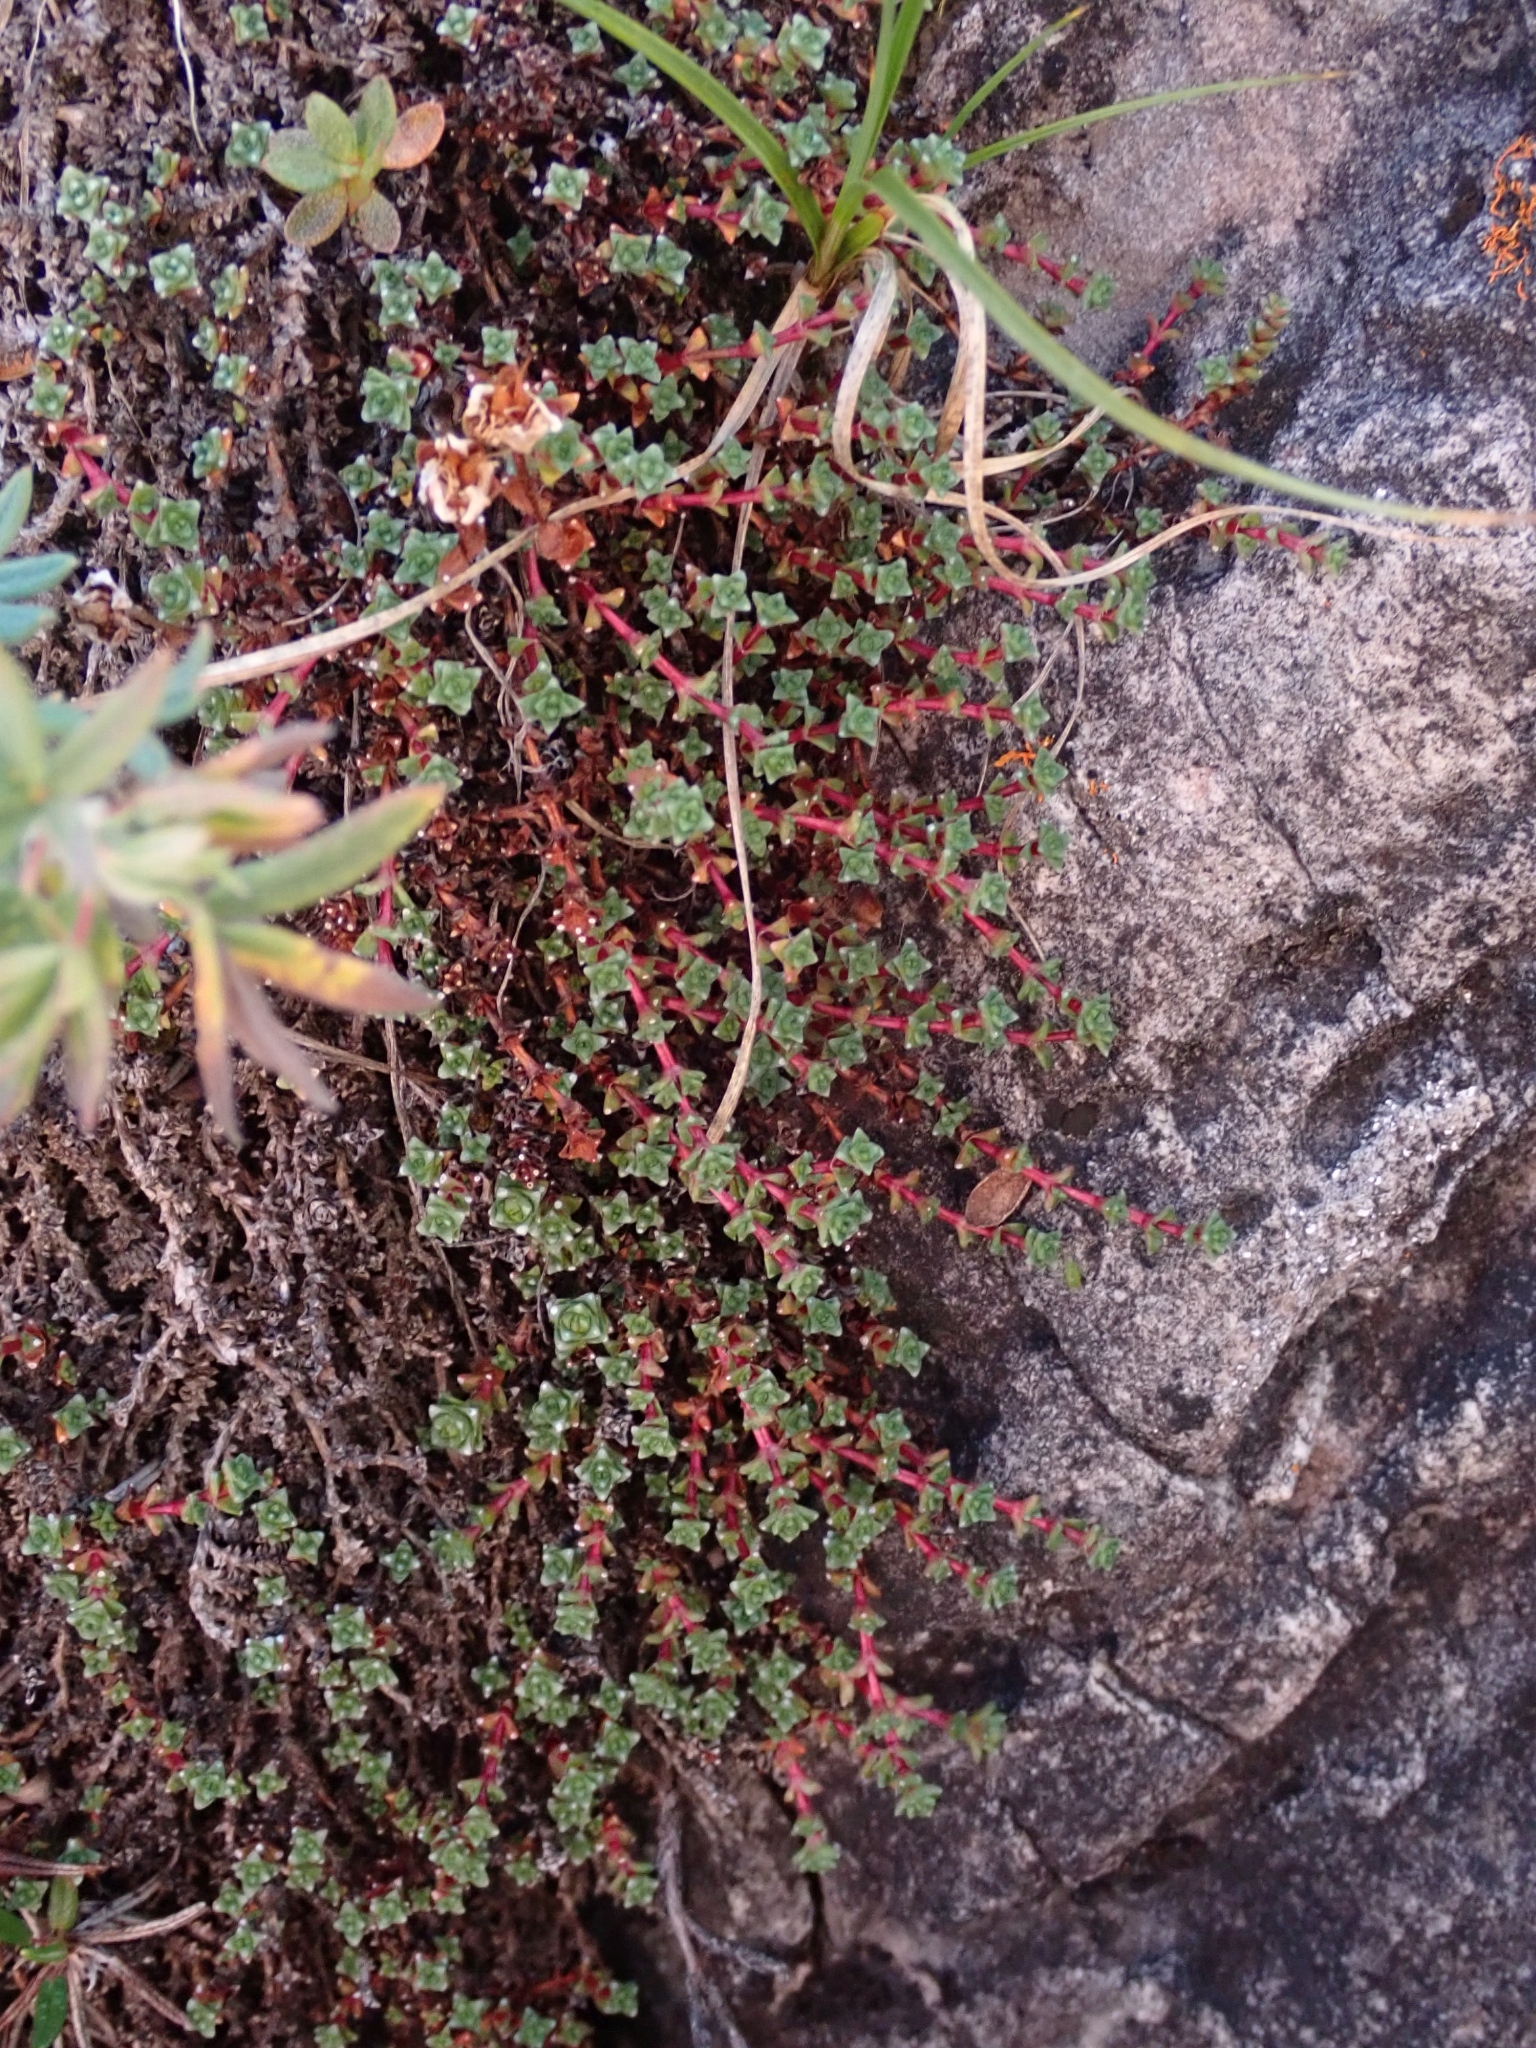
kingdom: Plantae
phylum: Tracheophyta
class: Magnoliopsida
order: Saxifragales
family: Saxifragaceae
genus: Saxifraga
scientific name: Saxifraga oppositifolia
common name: Purple saxifrage
